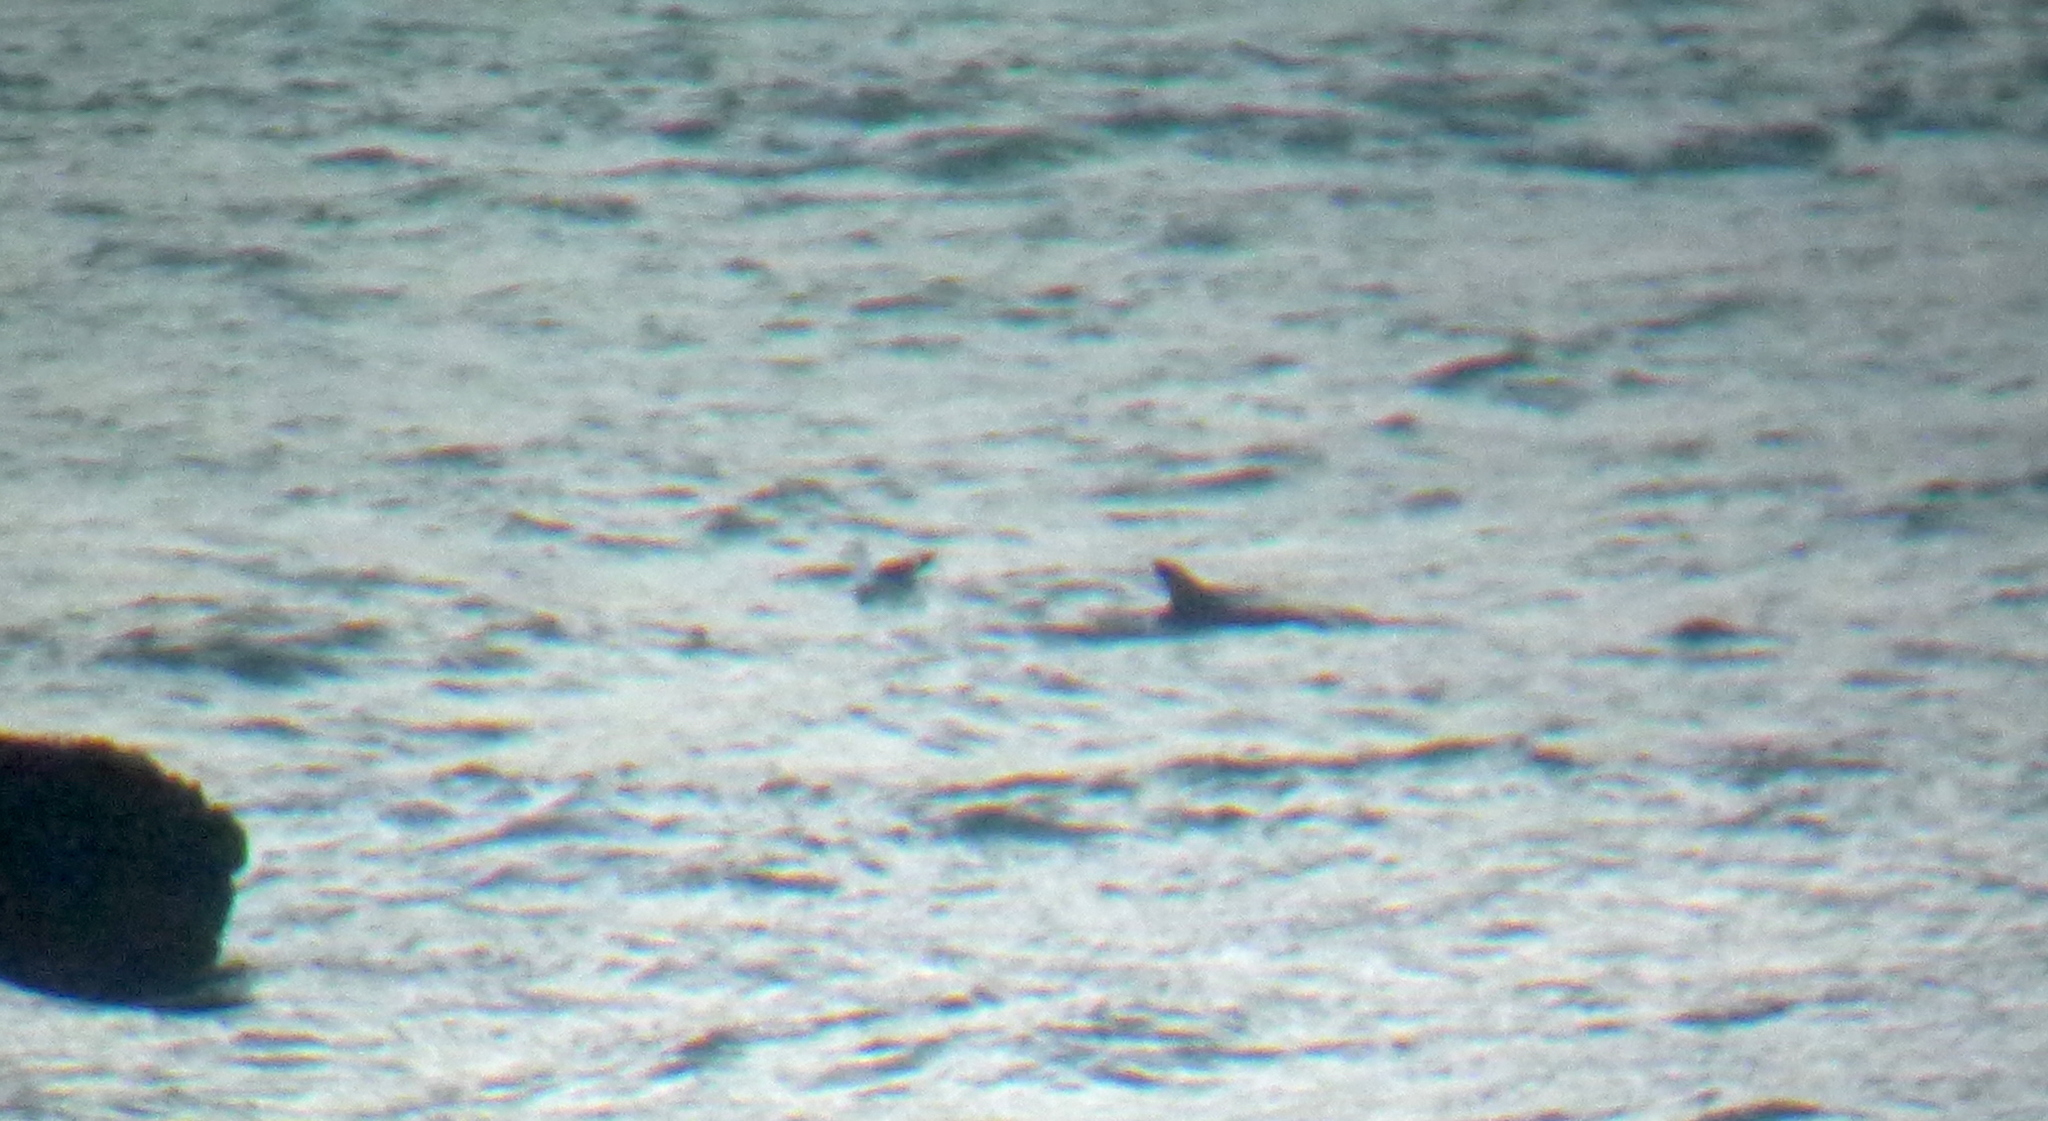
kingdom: Animalia
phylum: Chordata
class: Mammalia
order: Cetacea
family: Delphinidae
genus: Tursiops
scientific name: Tursiops truncatus
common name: Bottlenose dolphin
